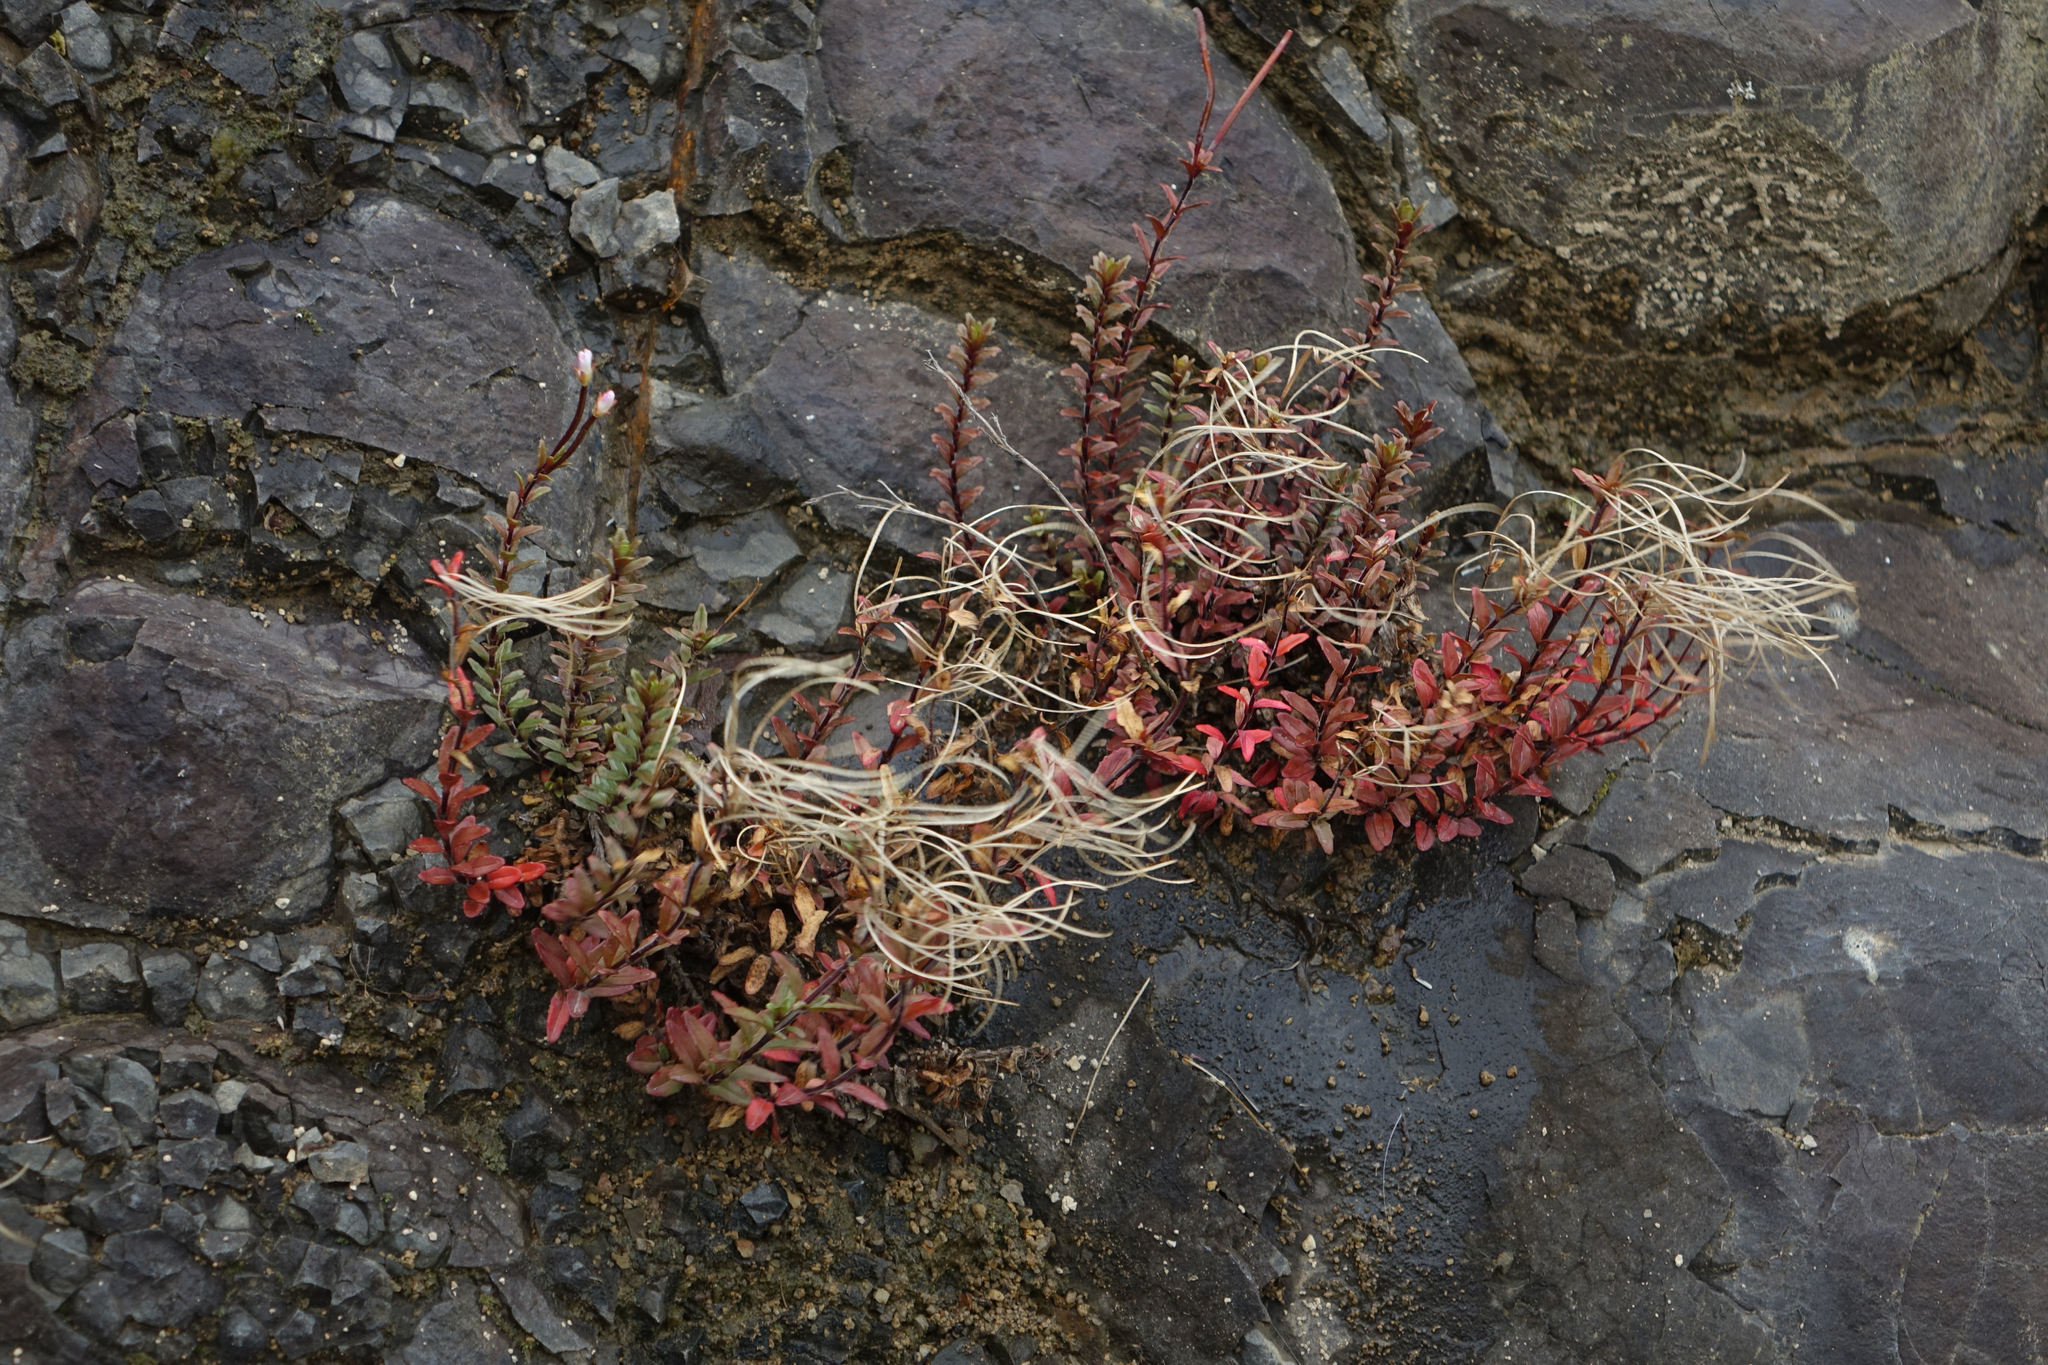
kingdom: Plantae
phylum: Tracheophyta
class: Magnoliopsida
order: Myrtales
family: Onagraceae
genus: Epilobium
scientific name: Epilobium glabellum
